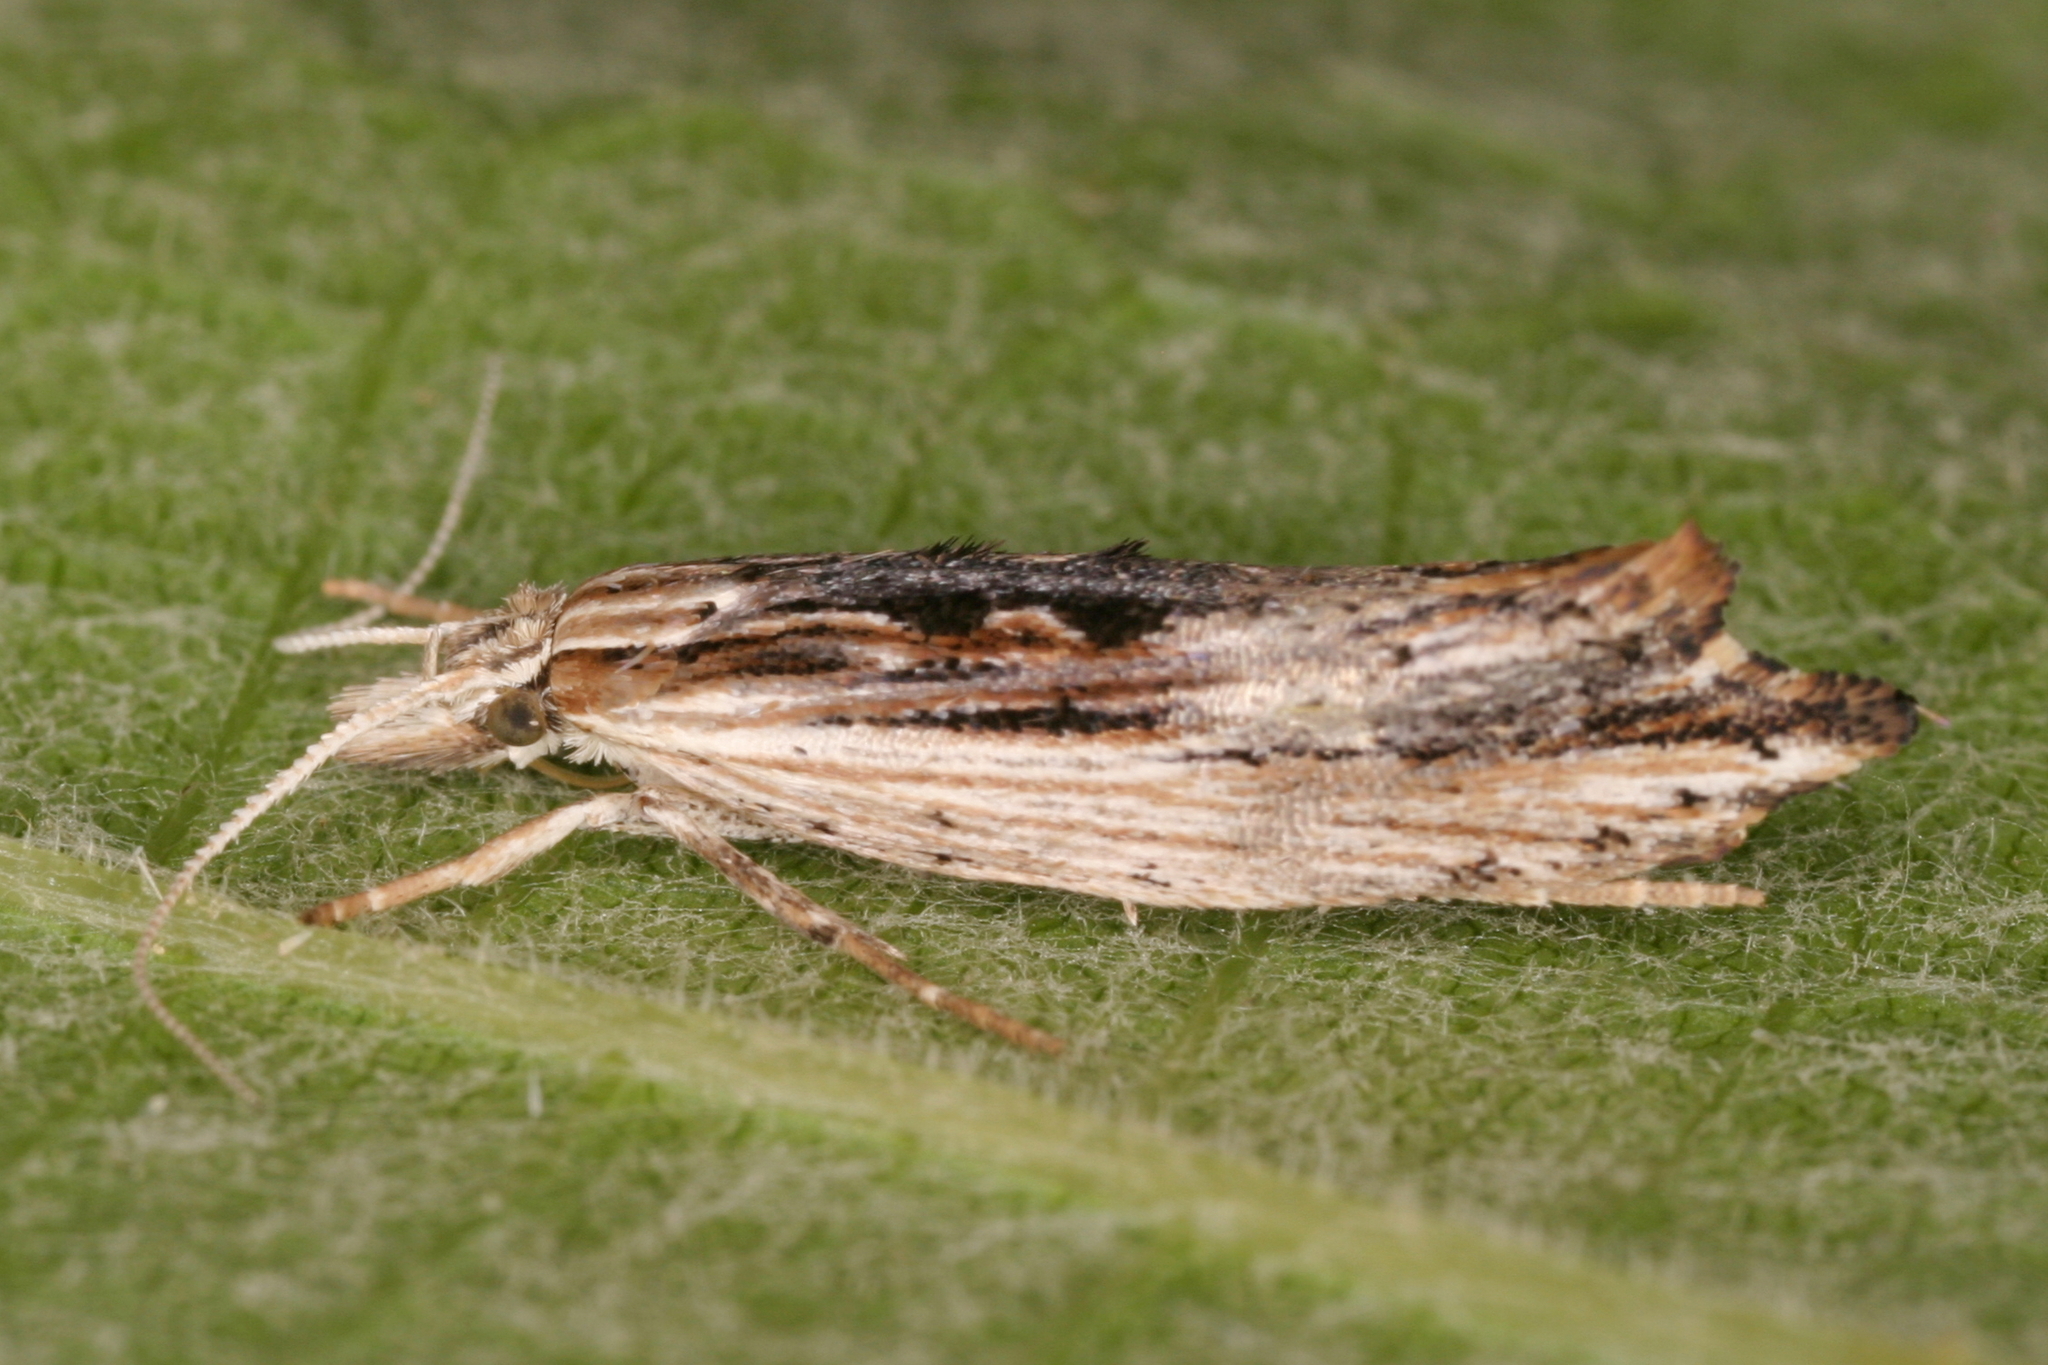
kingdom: Animalia
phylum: Arthropoda
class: Insecta
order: Lepidoptera
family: Ypsolophidae
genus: Ypsolopha
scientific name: Ypsolopha scabrella
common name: Wainscot smudge
